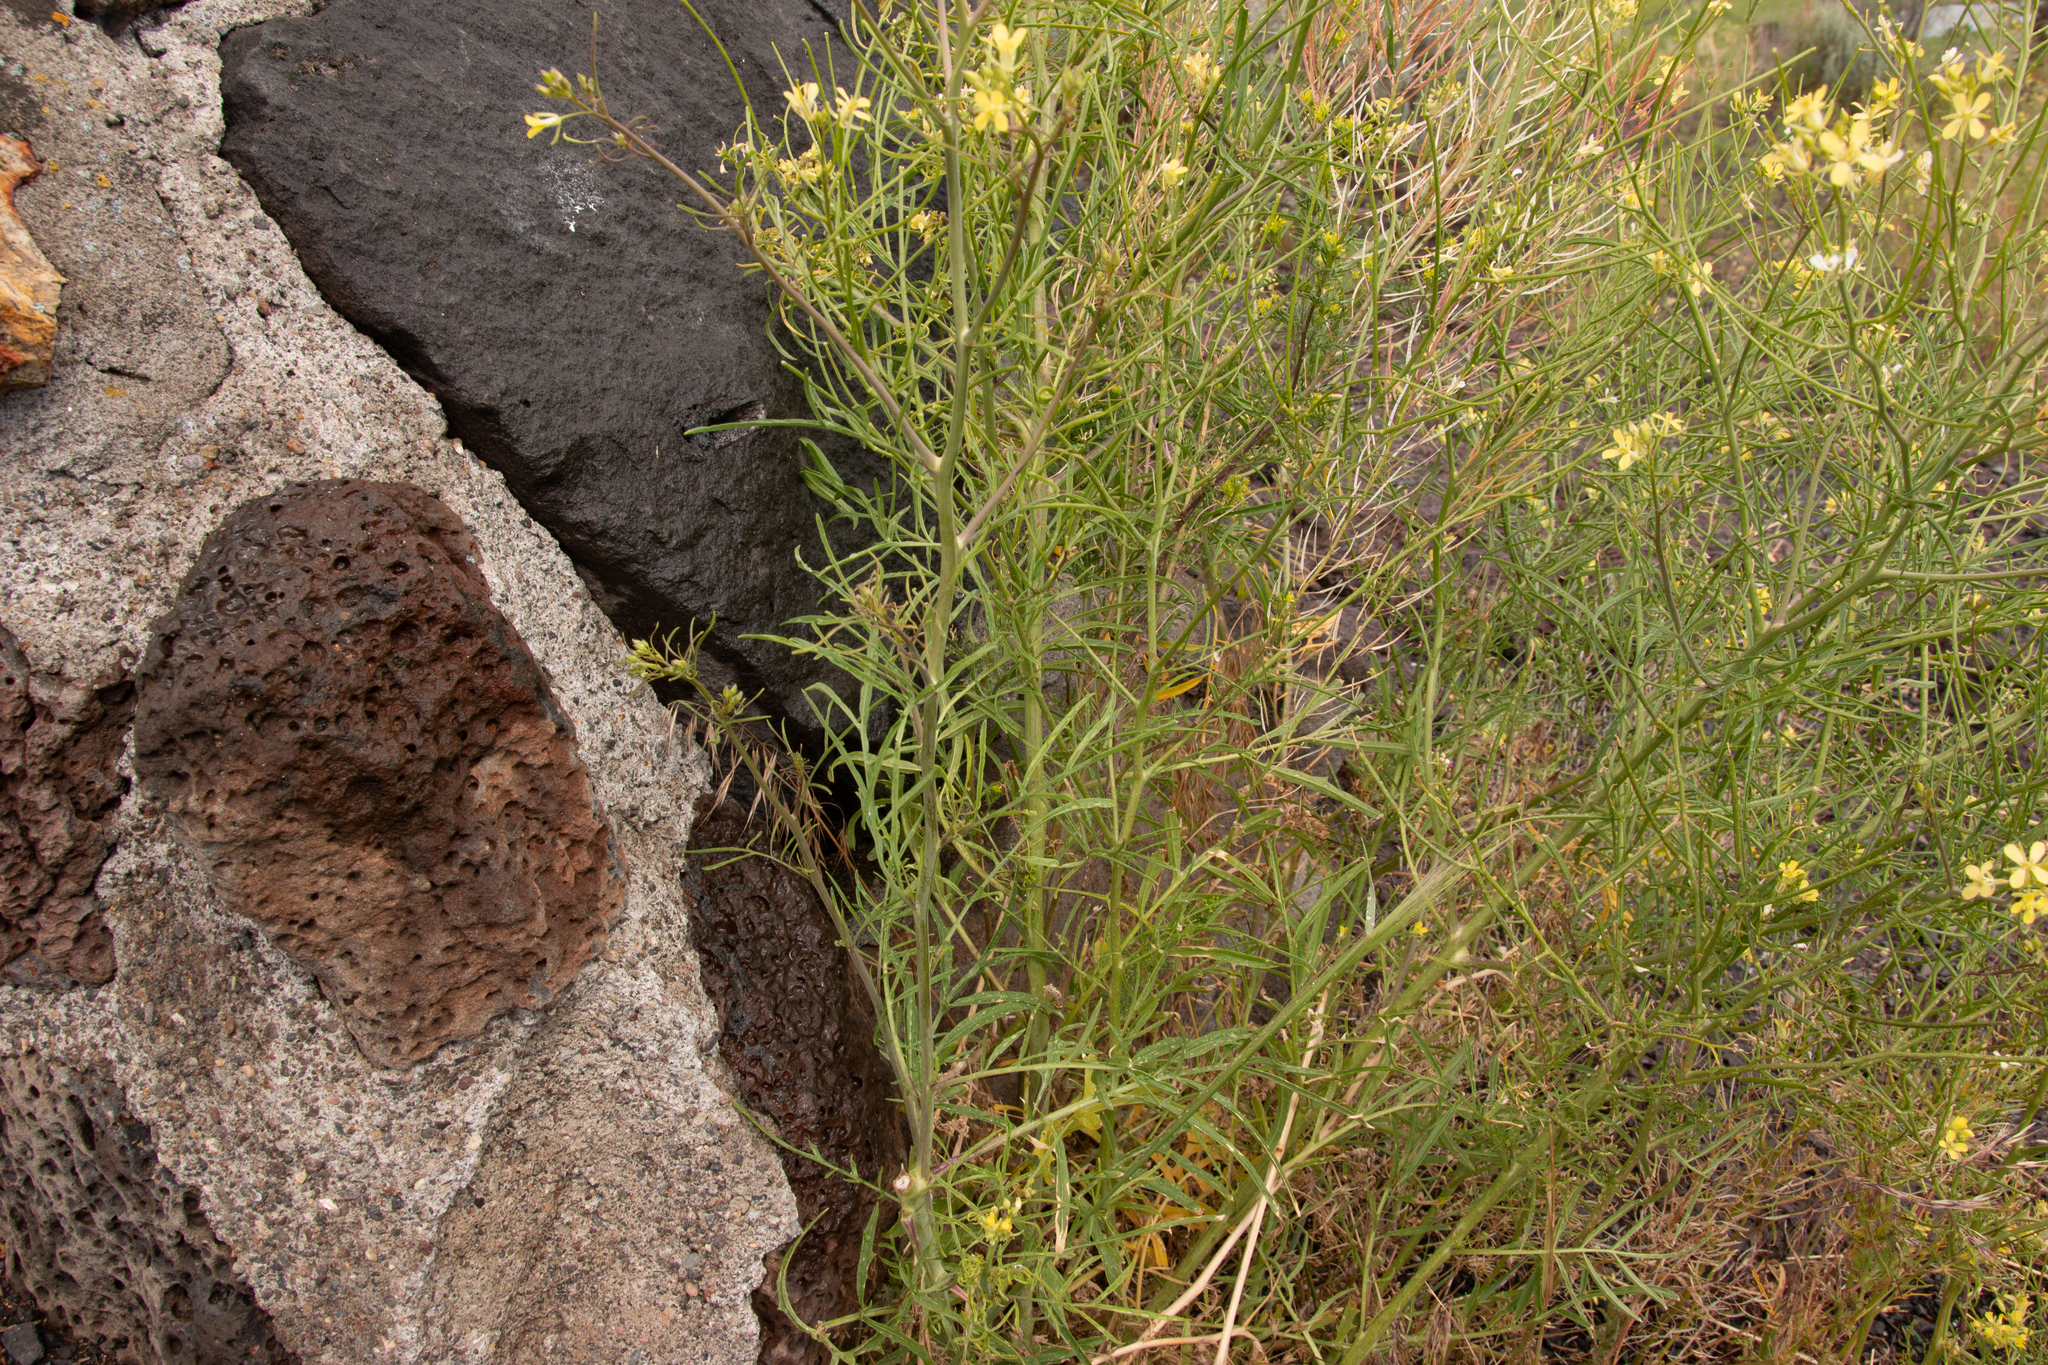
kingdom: Plantae
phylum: Tracheophyta
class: Magnoliopsida
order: Brassicales
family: Brassicaceae
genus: Sisymbrium
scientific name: Sisymbrium altissimum
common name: Tall rocket
